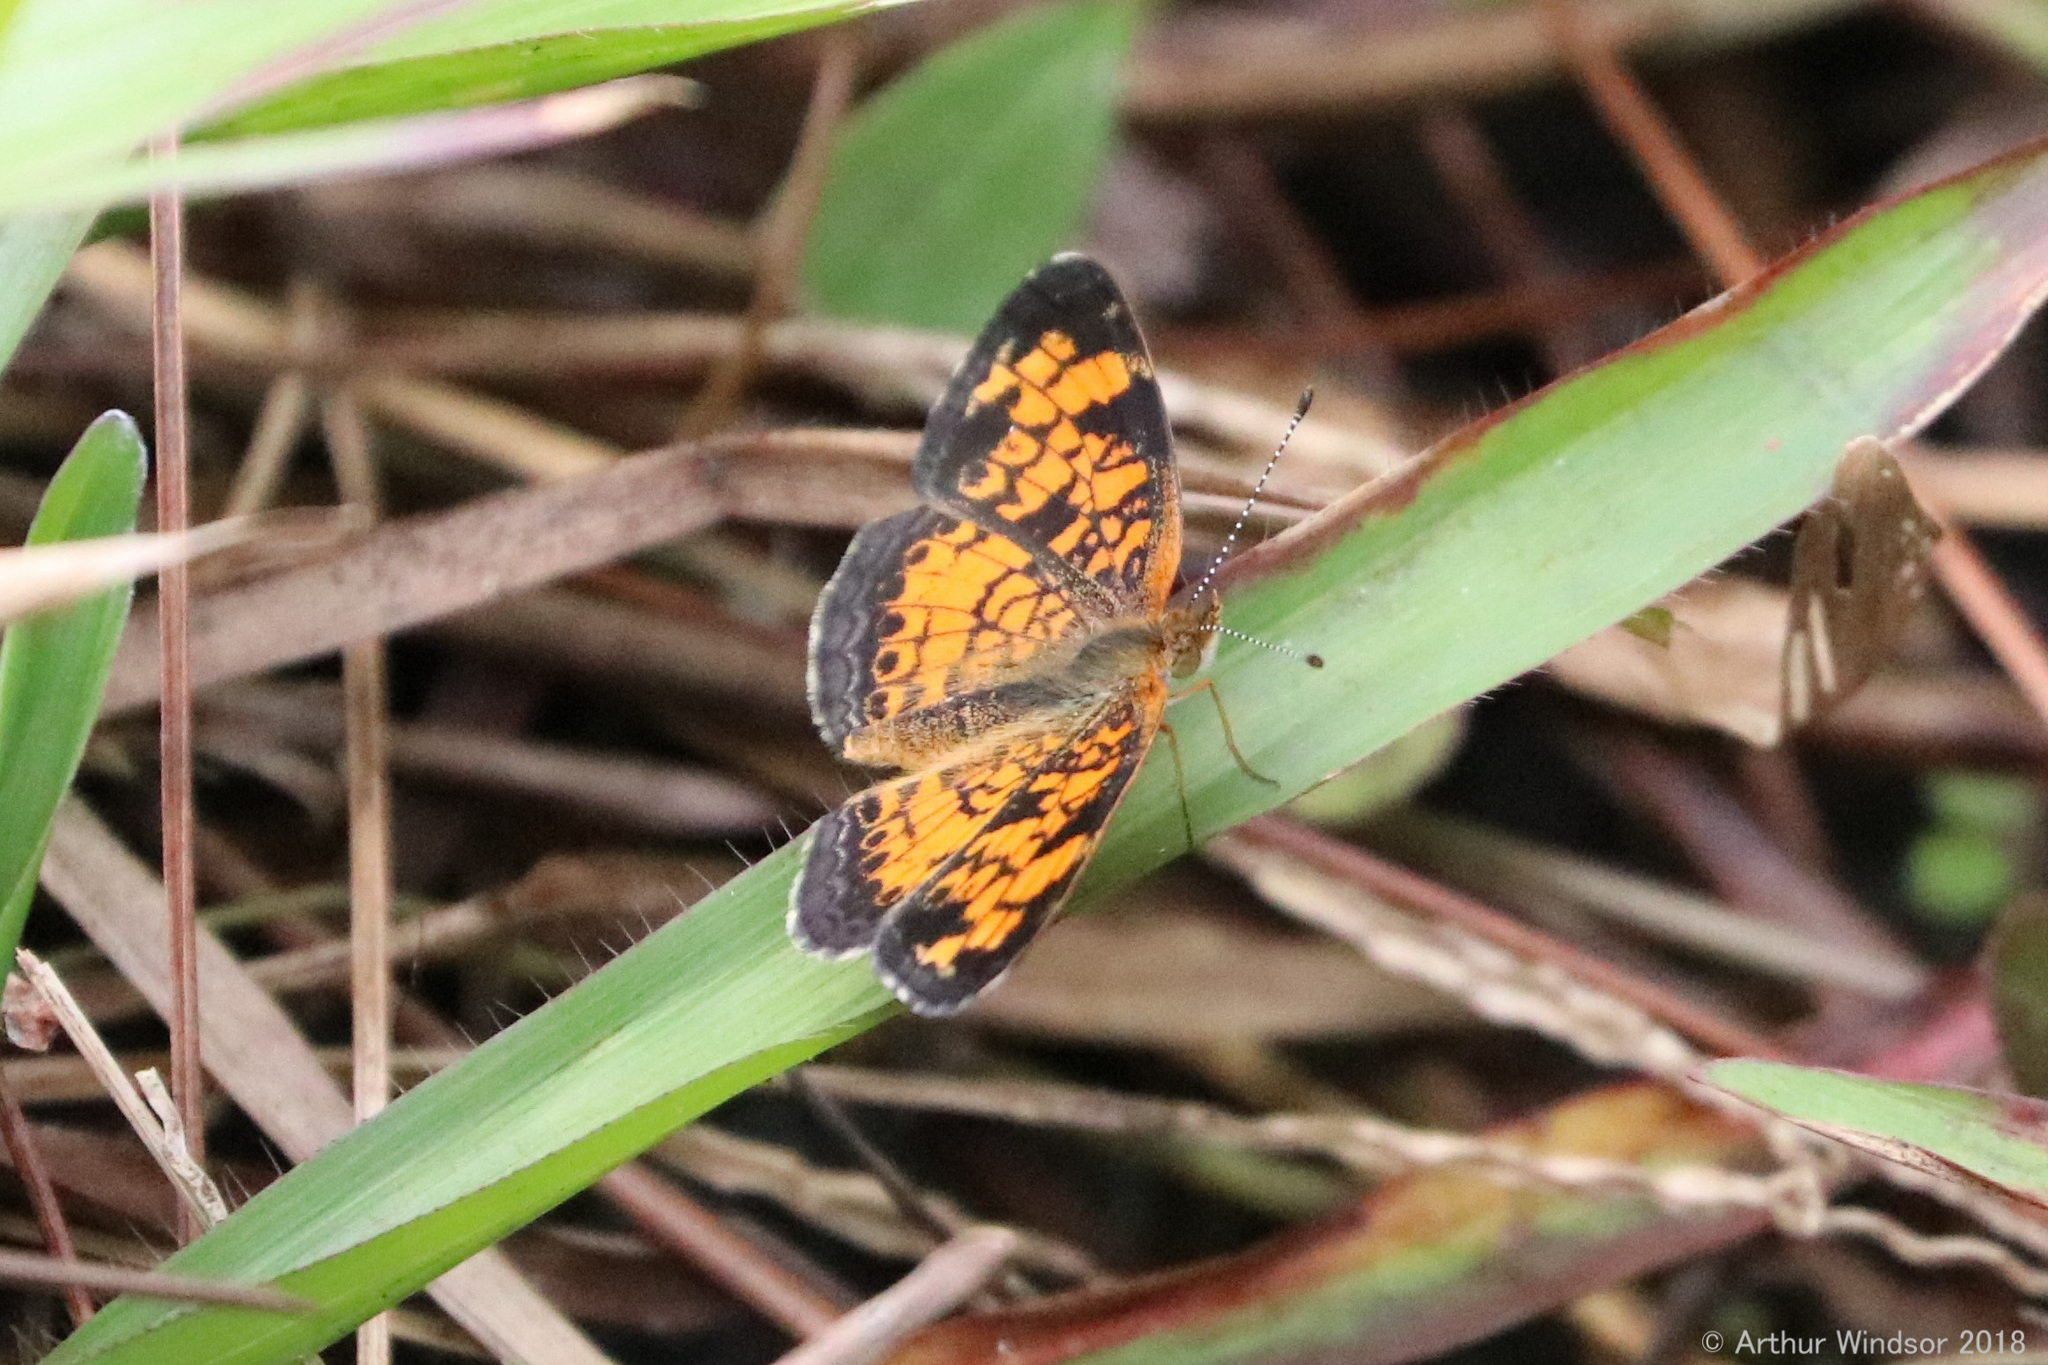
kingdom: Animalia
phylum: Arthropoda
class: Insecta
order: Lepidoptera
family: Nymphalidae
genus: Phyciodes
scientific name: Phyciodes tharos
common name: Pearl crescent
